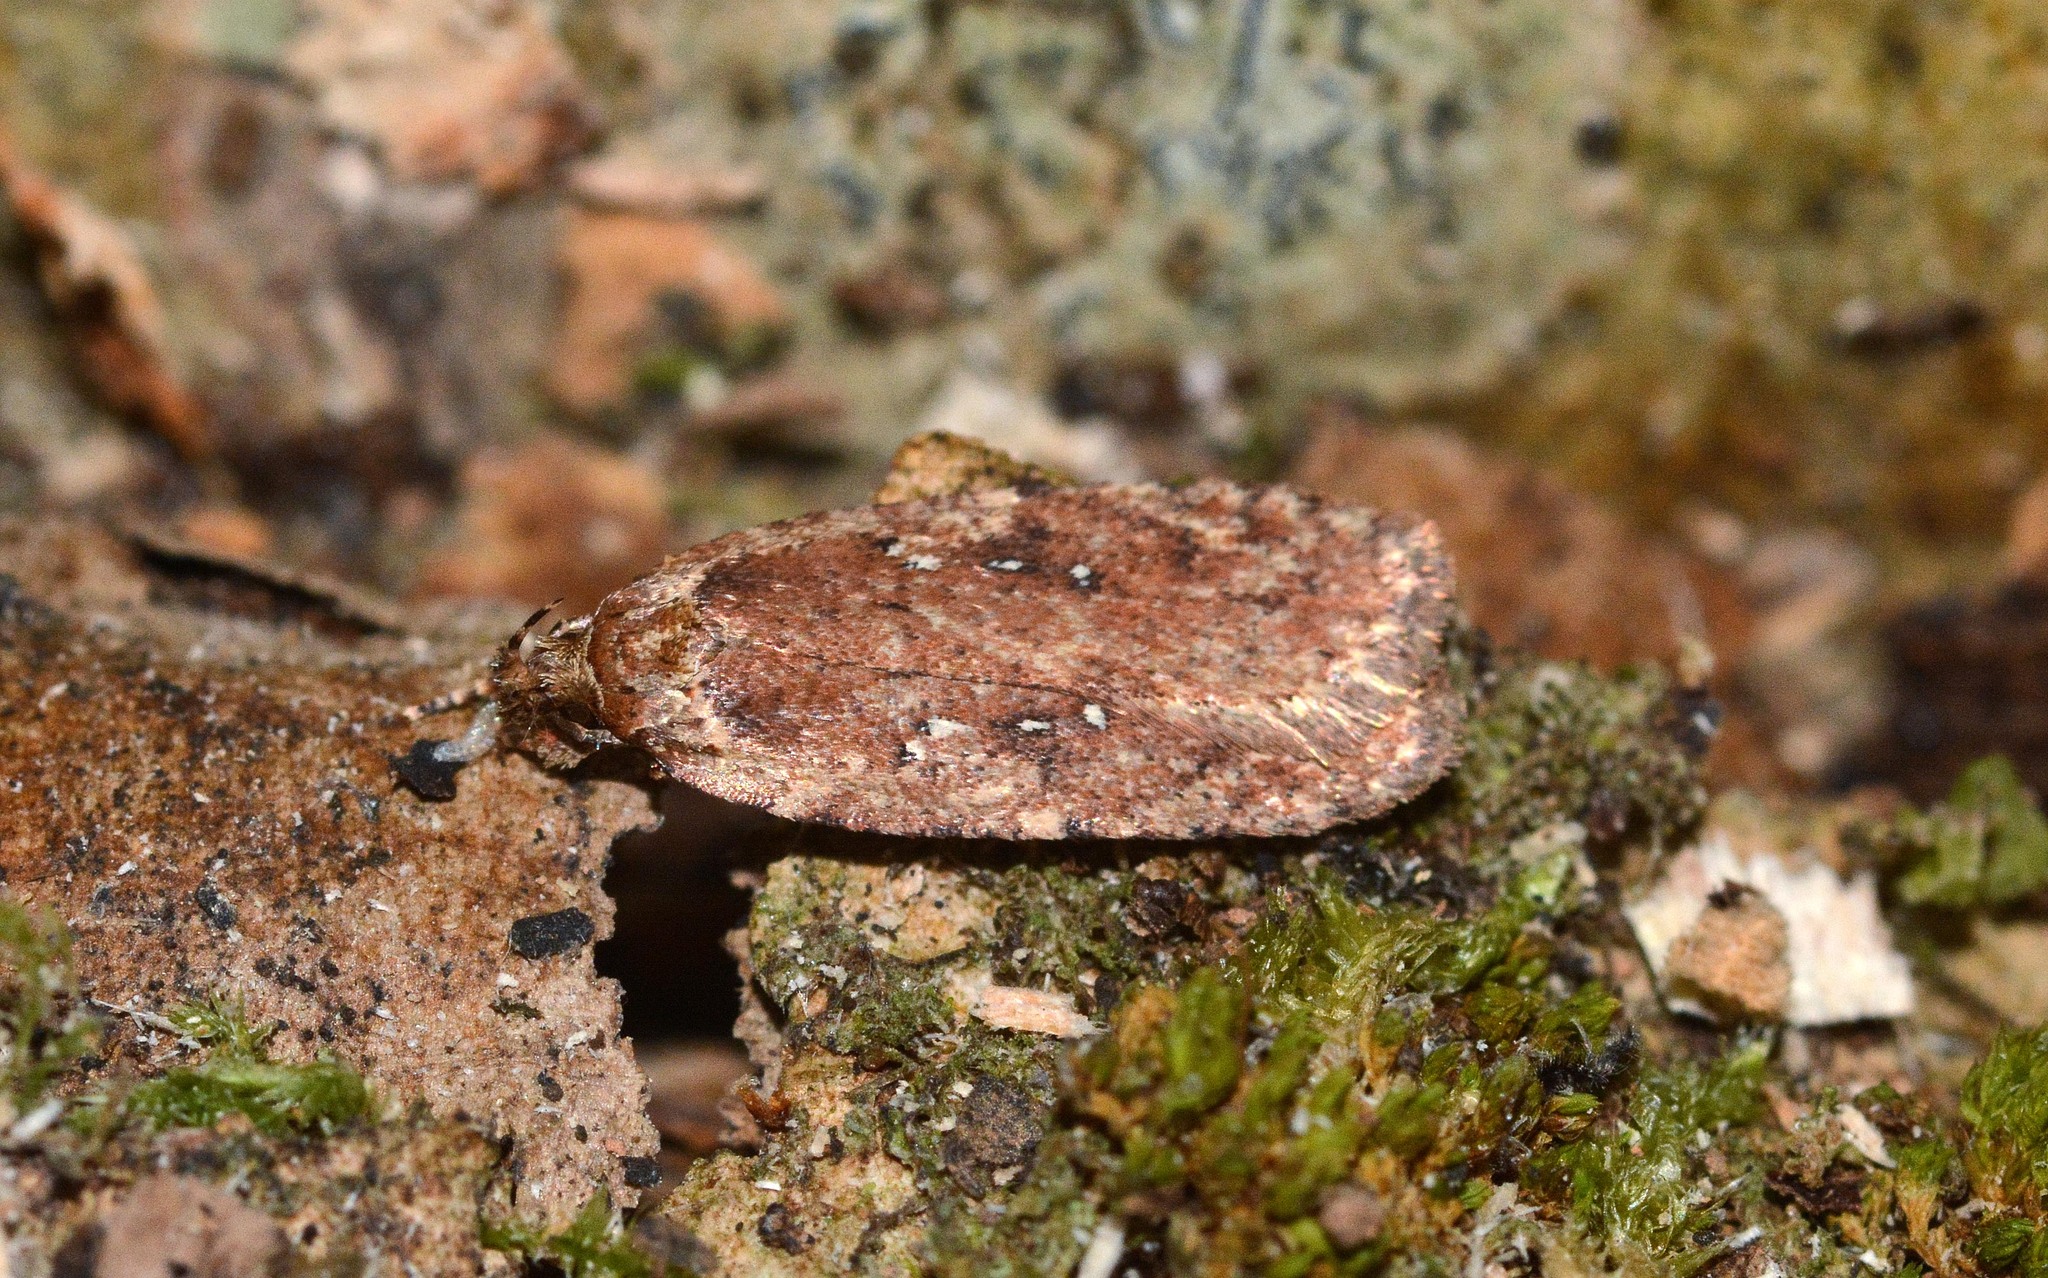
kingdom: Animalia
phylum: Arthropoda
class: Insecta
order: Lepidoptera
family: Depressariidae
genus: Agonopterix
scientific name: Agonopterix
